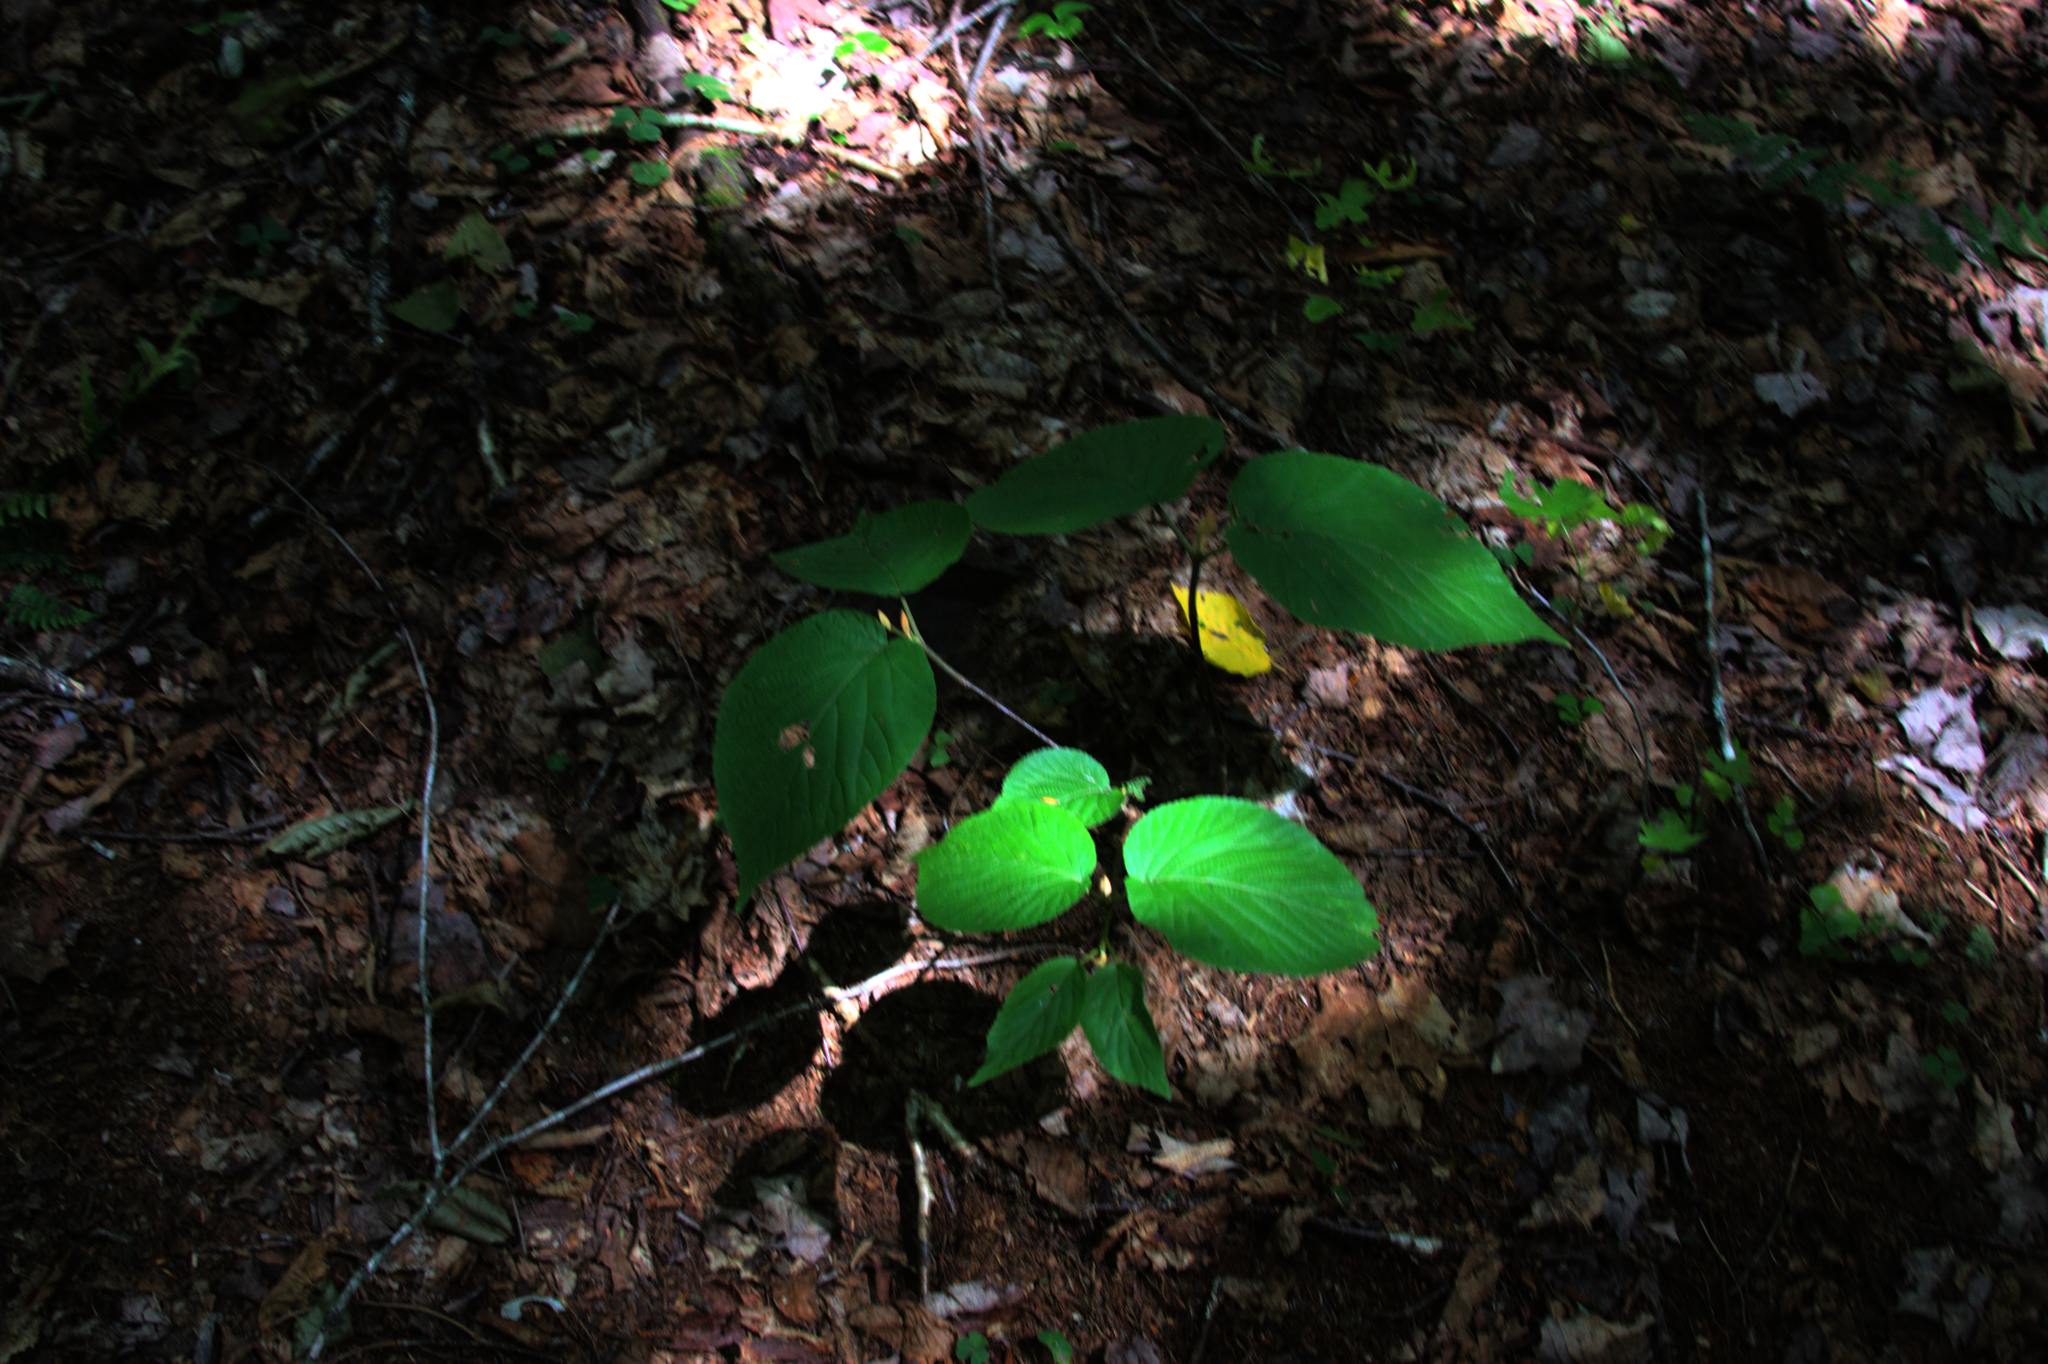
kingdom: Plantae
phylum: Tracheophyta
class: Magnoliopsida
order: Dipsacales
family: Viburnaceae
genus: Viburnum
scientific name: Viburnum lantanoides
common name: Hobblebush
